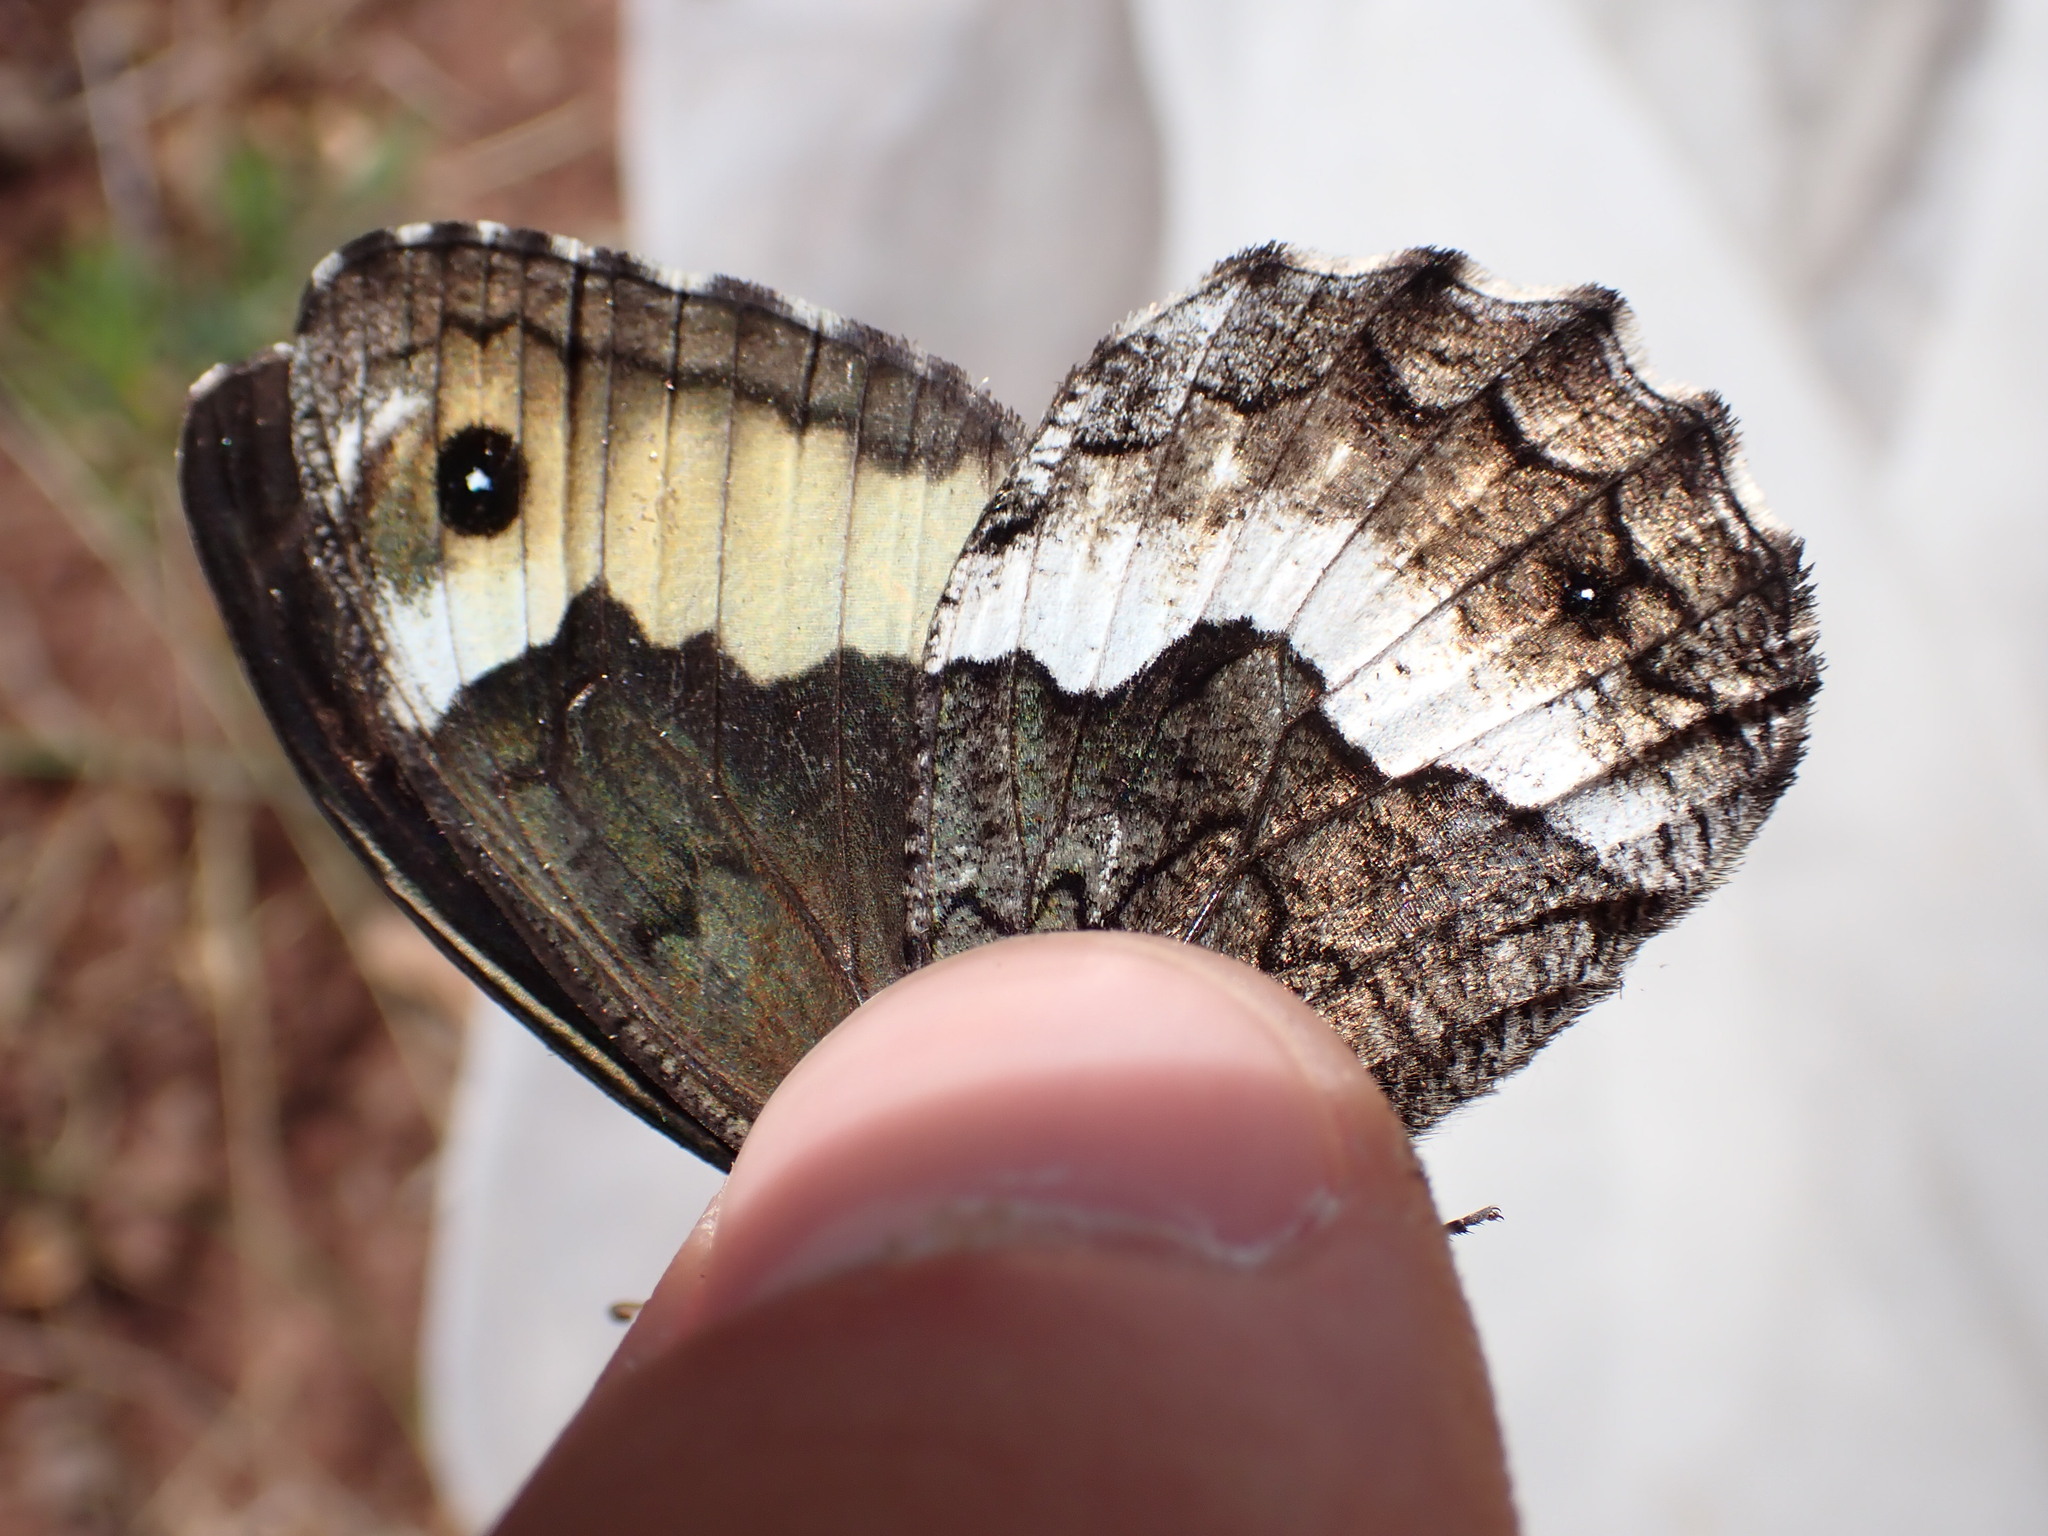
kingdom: Animalia
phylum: Arthropoda
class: Insecta
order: Lepidoptera
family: Nymphalidae
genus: Hipparchia
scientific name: Hipparchia fagi
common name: Woodland grayling
